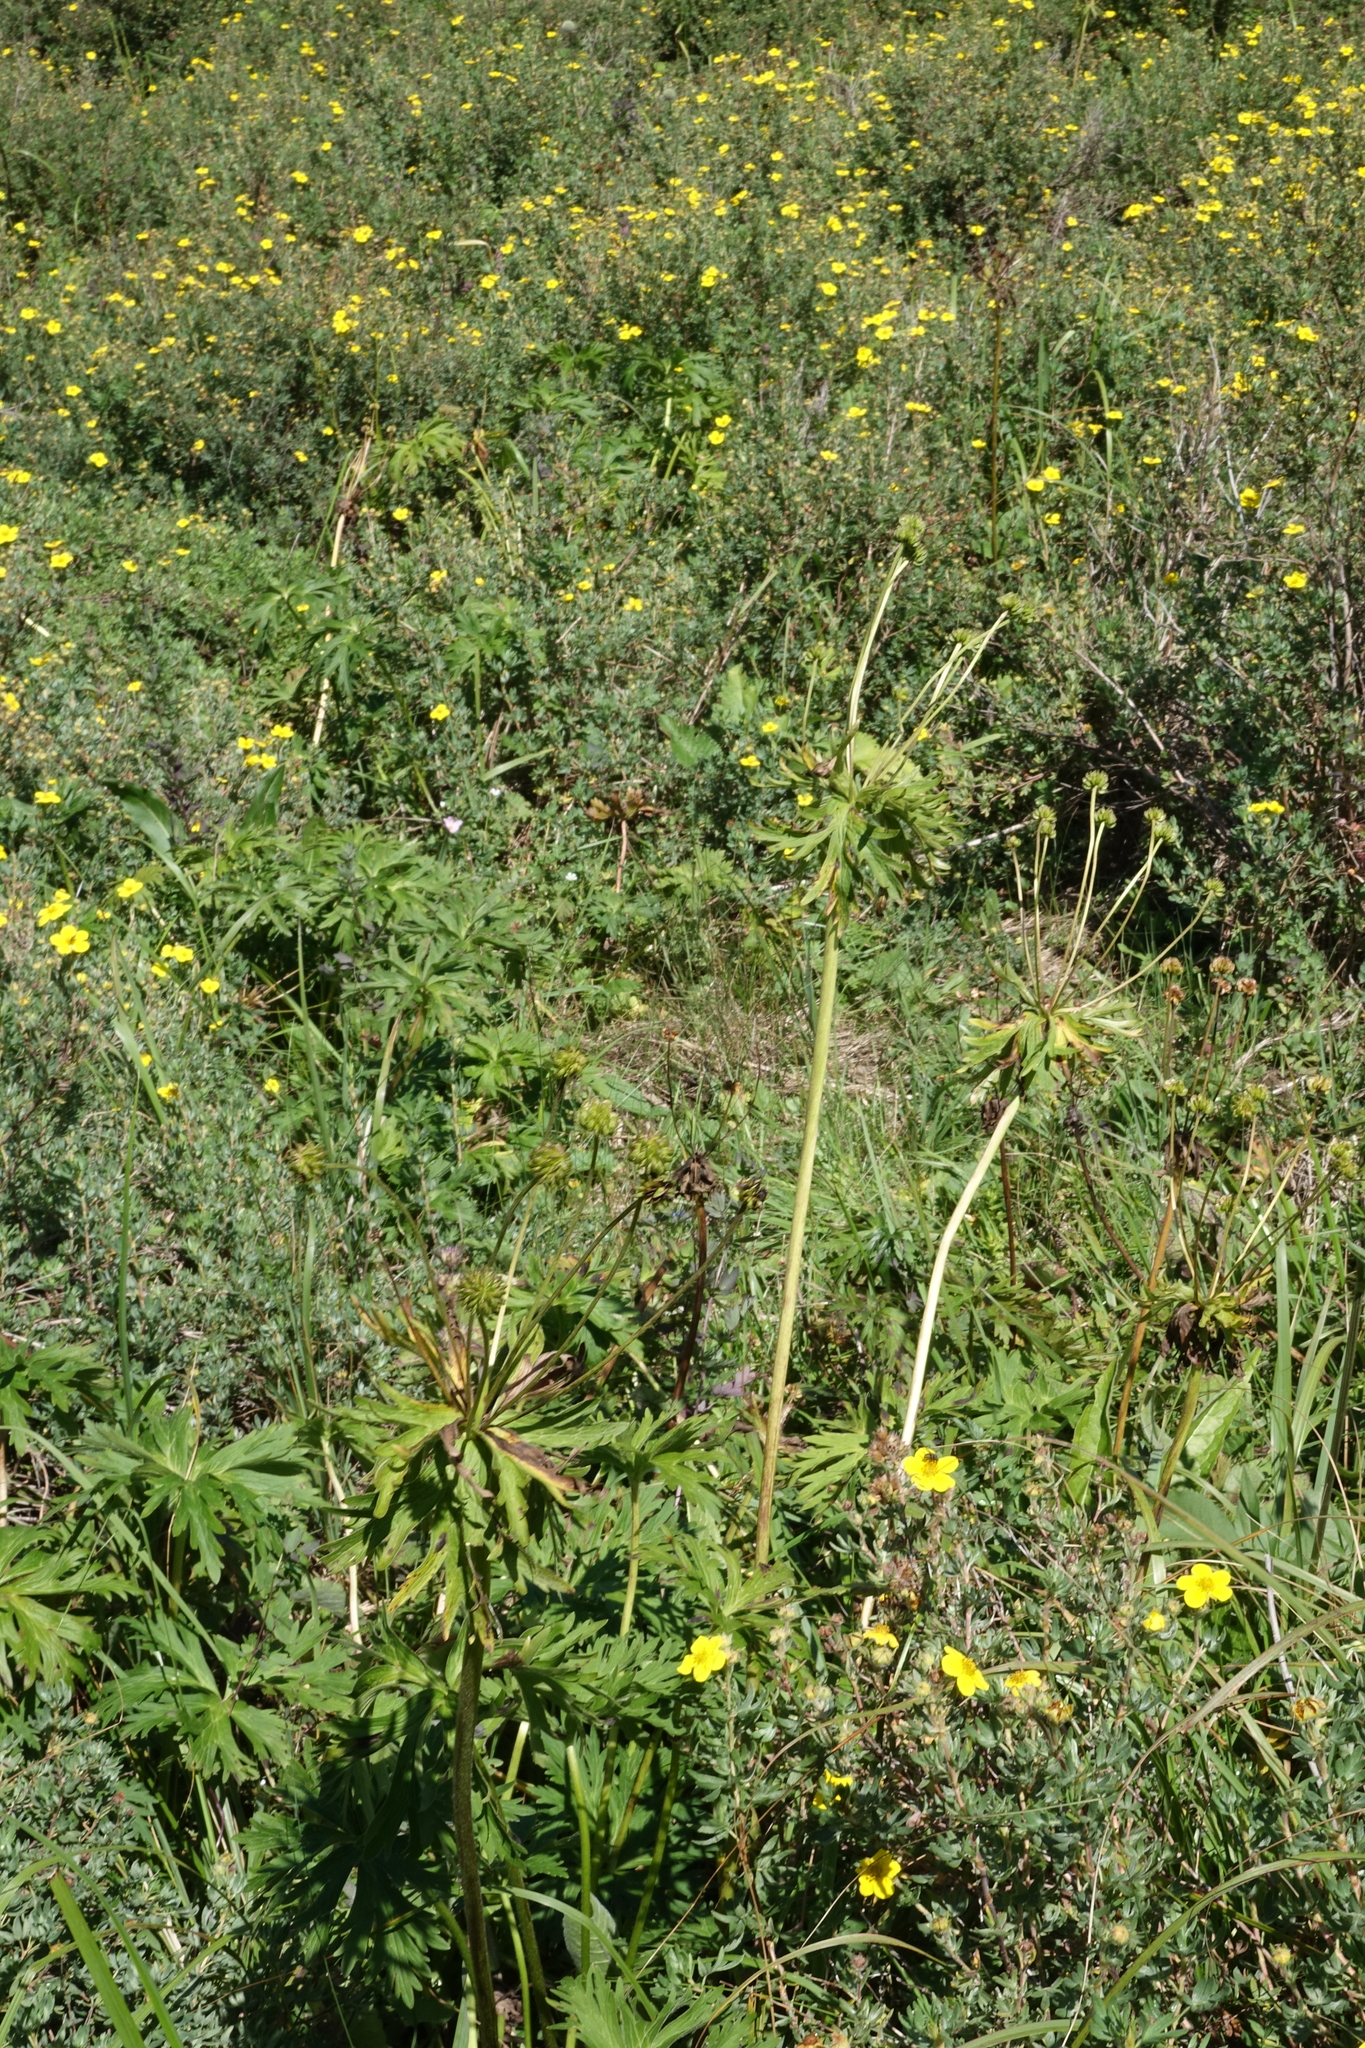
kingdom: Plantae
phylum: Tracheophyta
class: Magnoliopsida
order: Ranunculales
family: Ranunculaceae
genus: Anemonastrum
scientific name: Anemonastrum narcissiflorum
